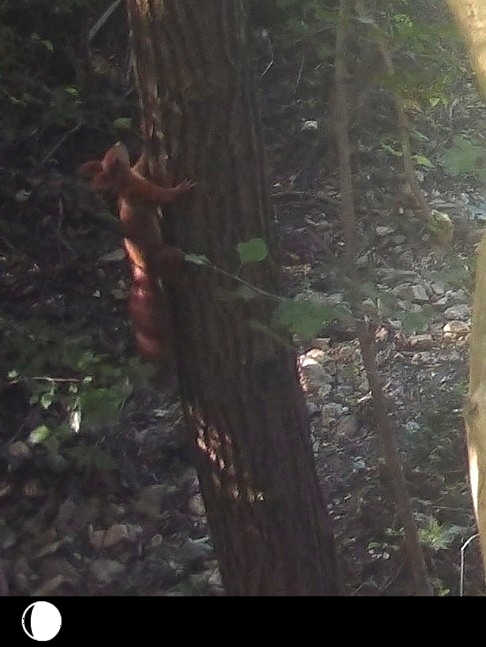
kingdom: Animalia
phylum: Chordata
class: Mammalia
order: Rodentia
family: Sciuridae
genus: Sciurus
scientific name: Sciurus vulgaris
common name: Eurasian red squirrel
